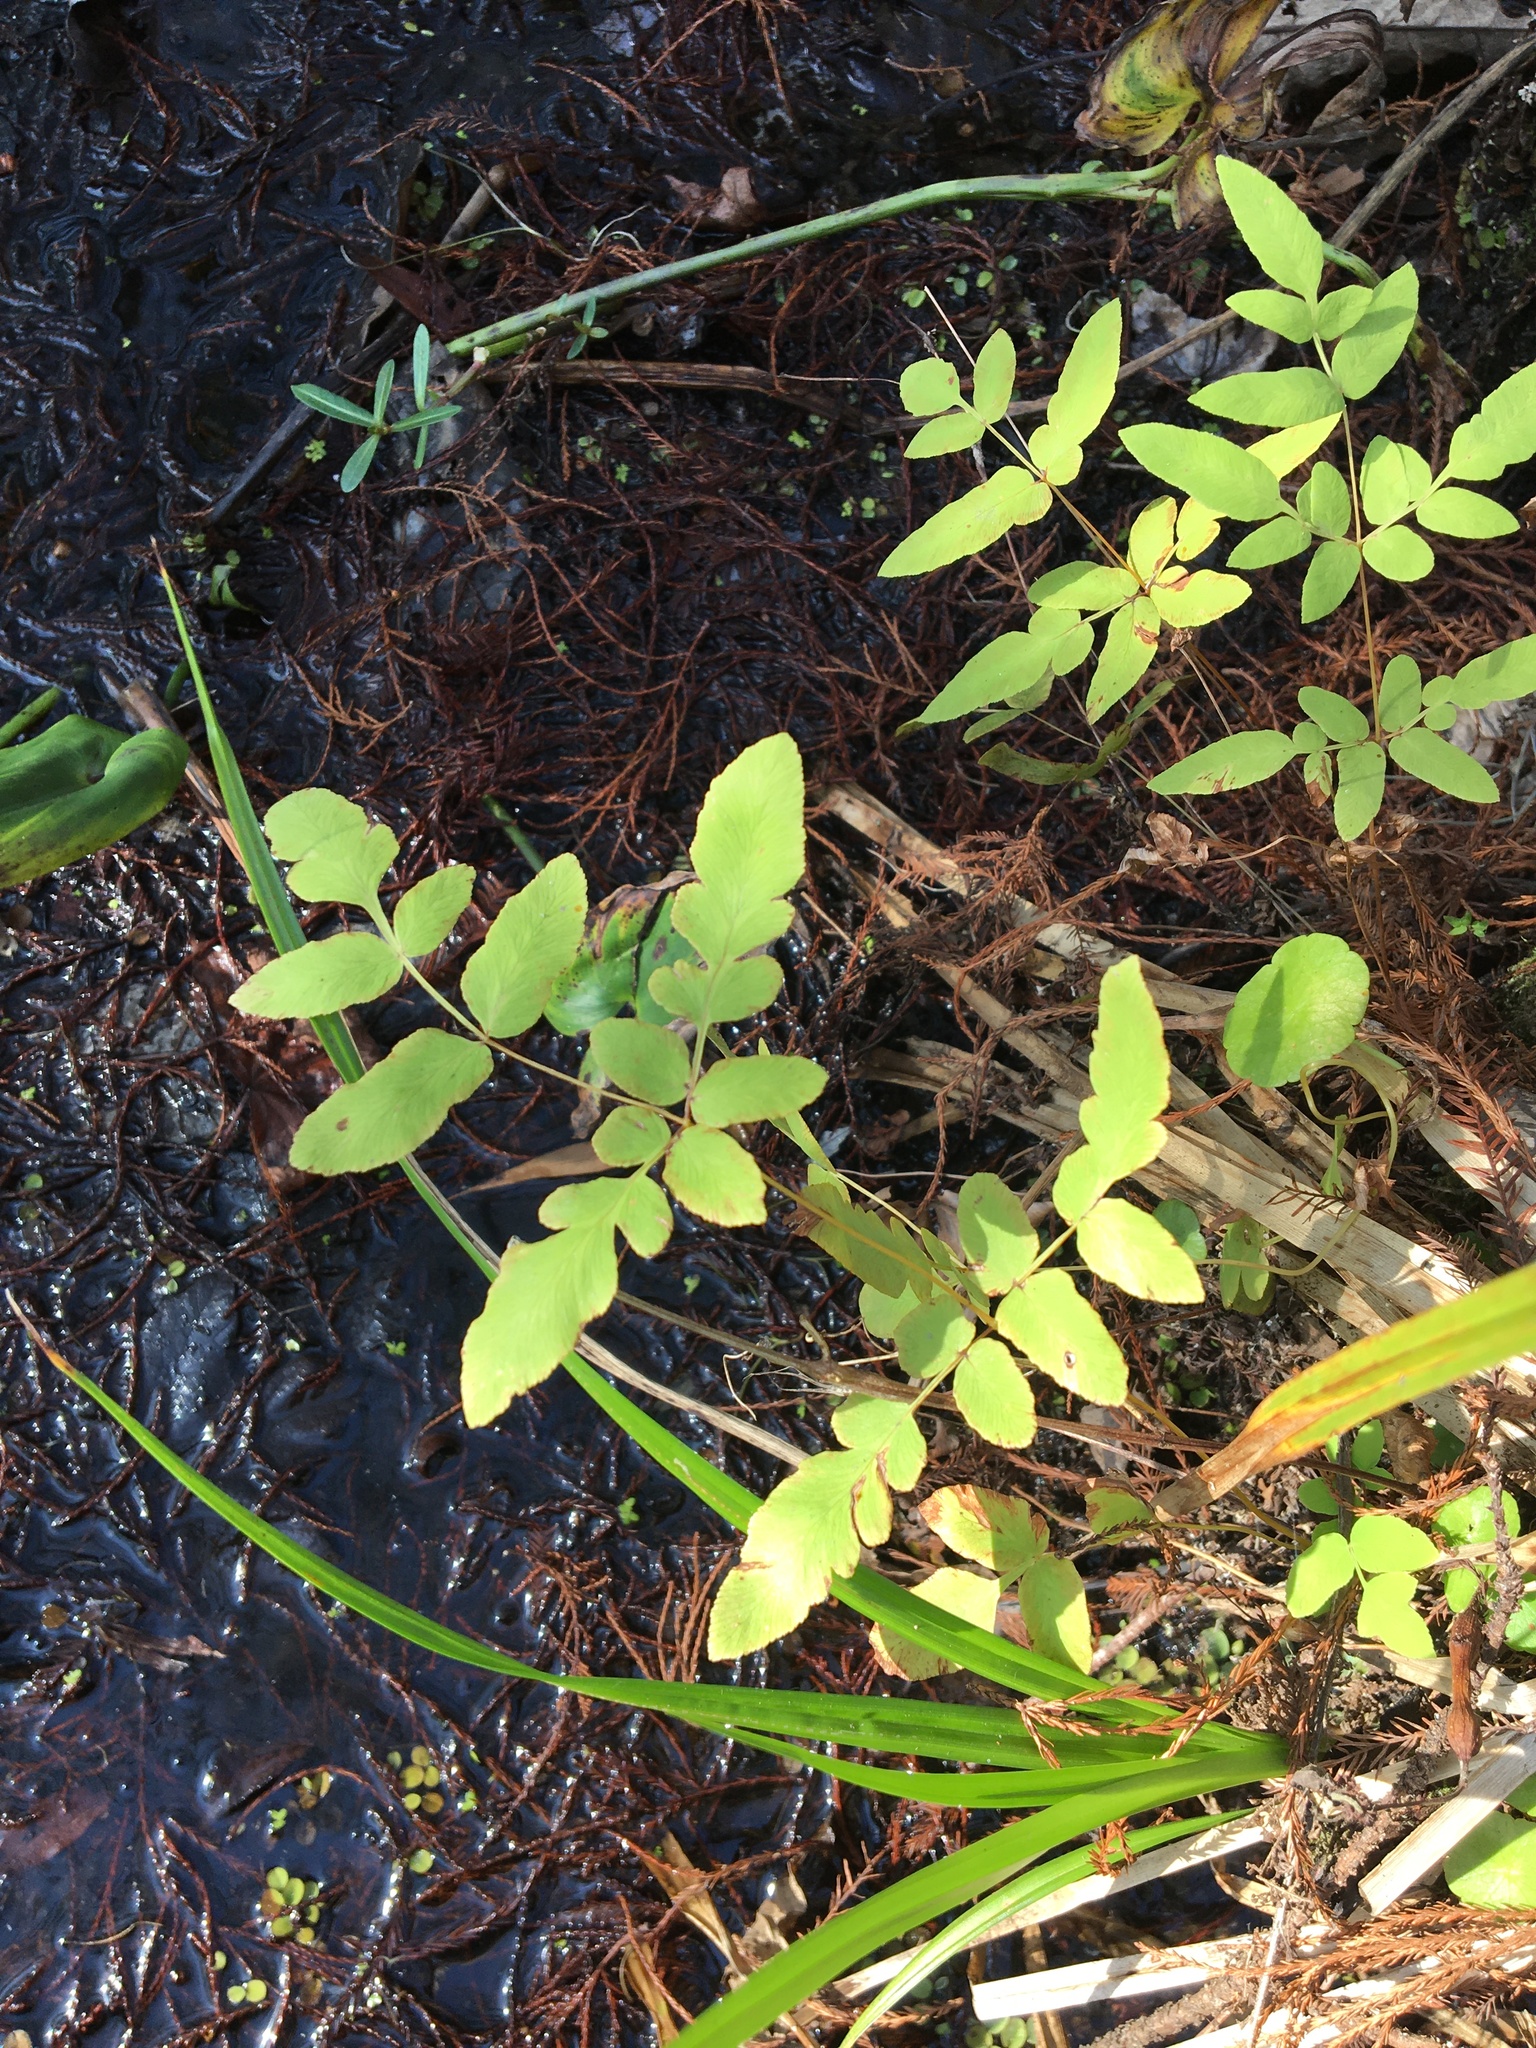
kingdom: Plantae
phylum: Tracheophyta
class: Polypodiopsida
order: Osmundales
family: Osmundaceae
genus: Osmunda
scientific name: Osmunda spectabilis
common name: American royal fern
